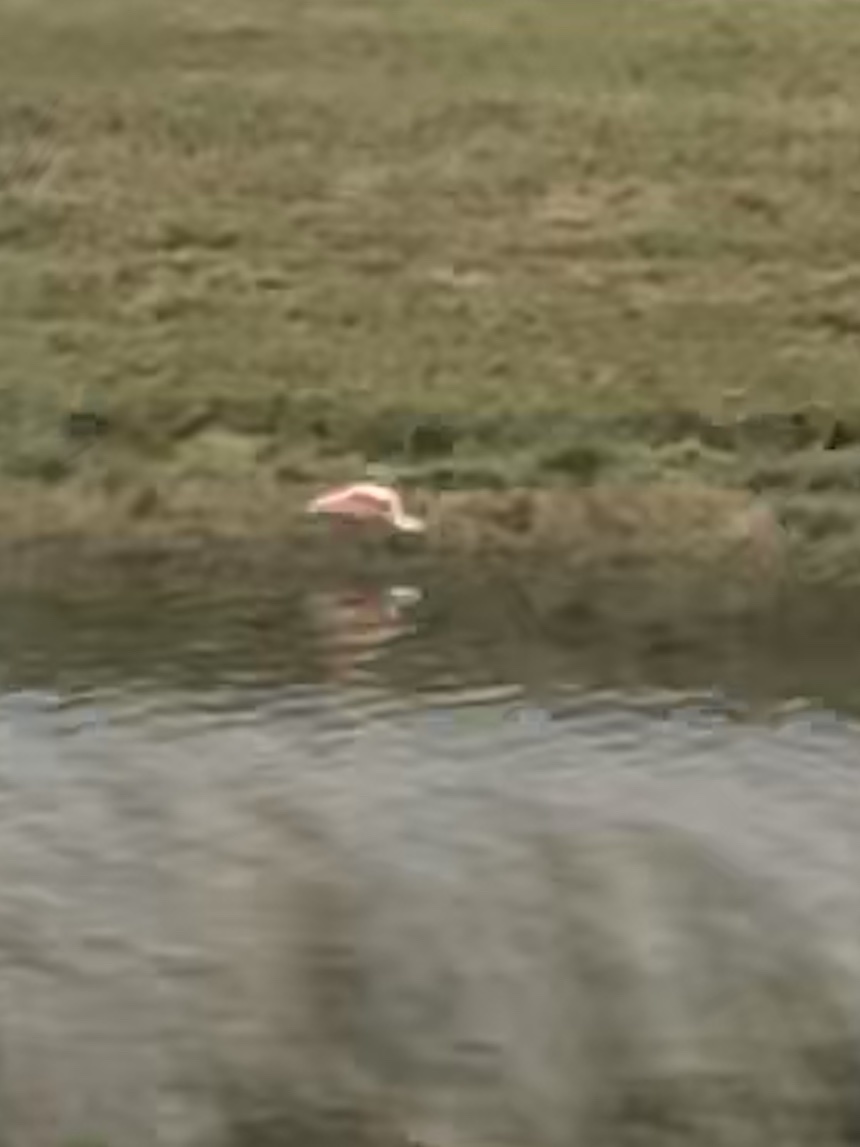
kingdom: Animalia
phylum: Chordata
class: Aves
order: Pelecaniformes
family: Threskiornithidae
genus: Platalea
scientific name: Platalea ajaja
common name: Roseate spoonbill
